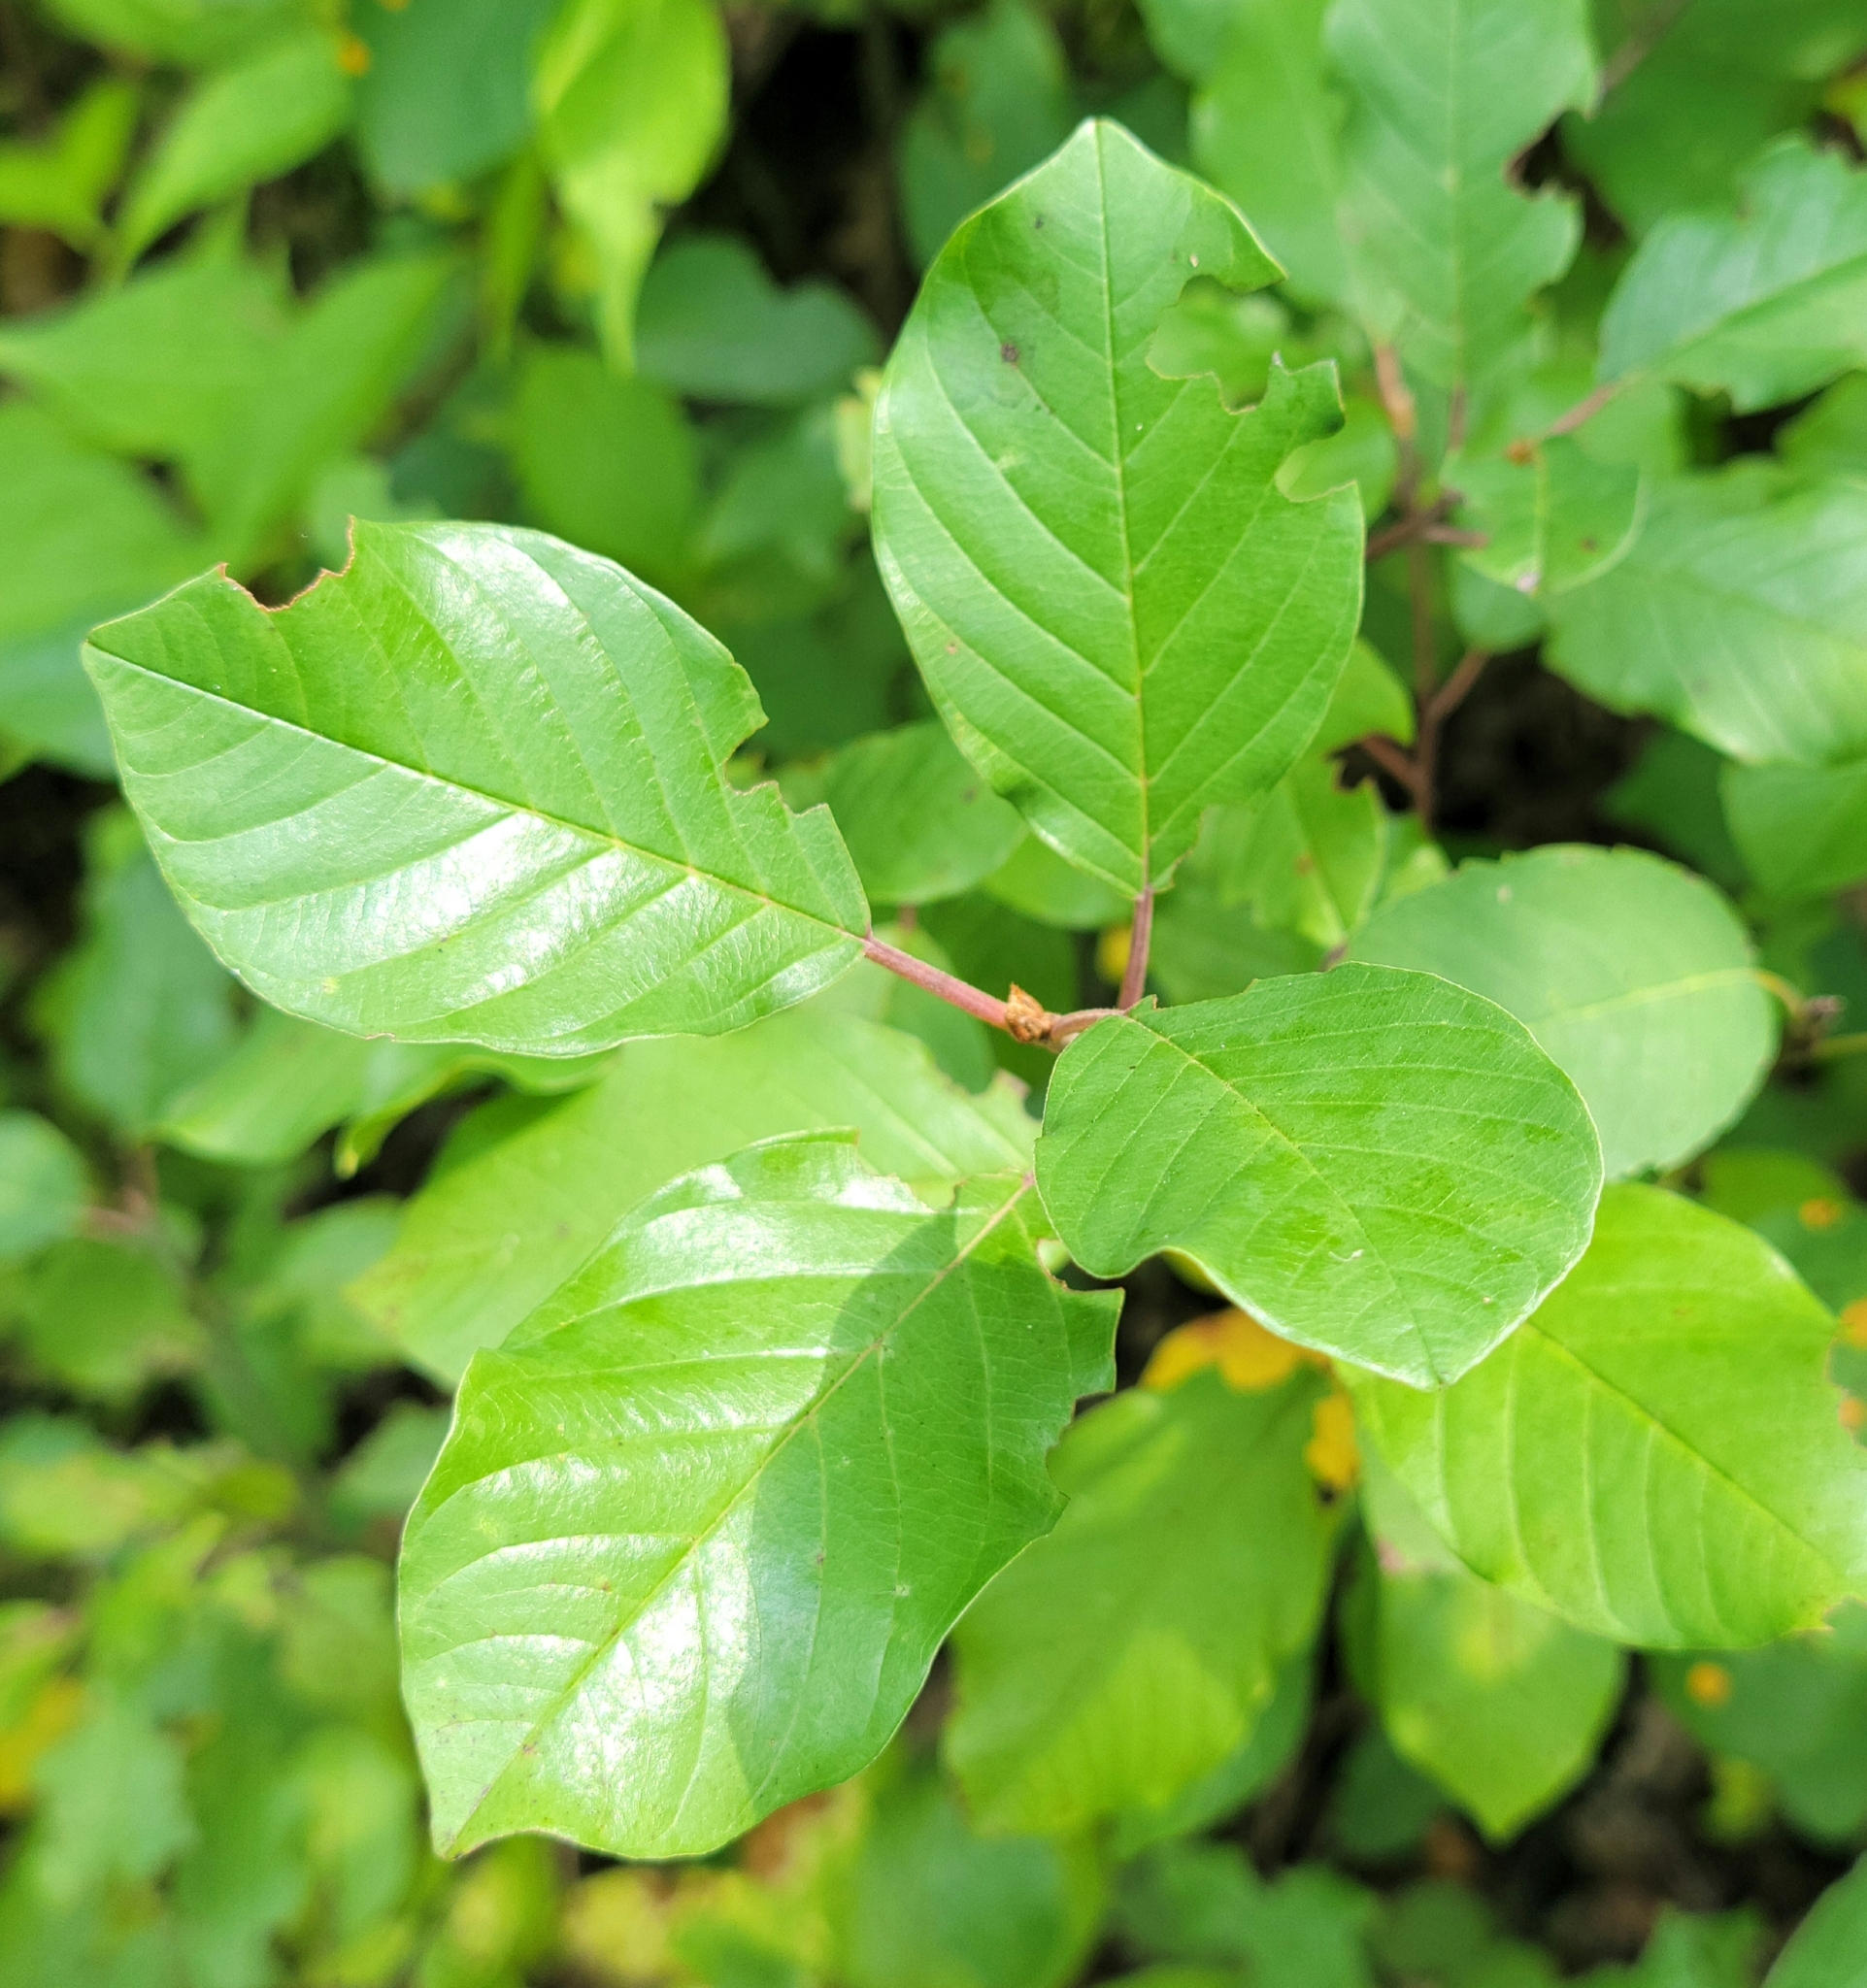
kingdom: Plantae
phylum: Tracheophyta
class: Magnoliopsida
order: Rosales
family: Rhamnaceae
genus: Frangula
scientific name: Frangula alnus
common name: Alder buckthorn
